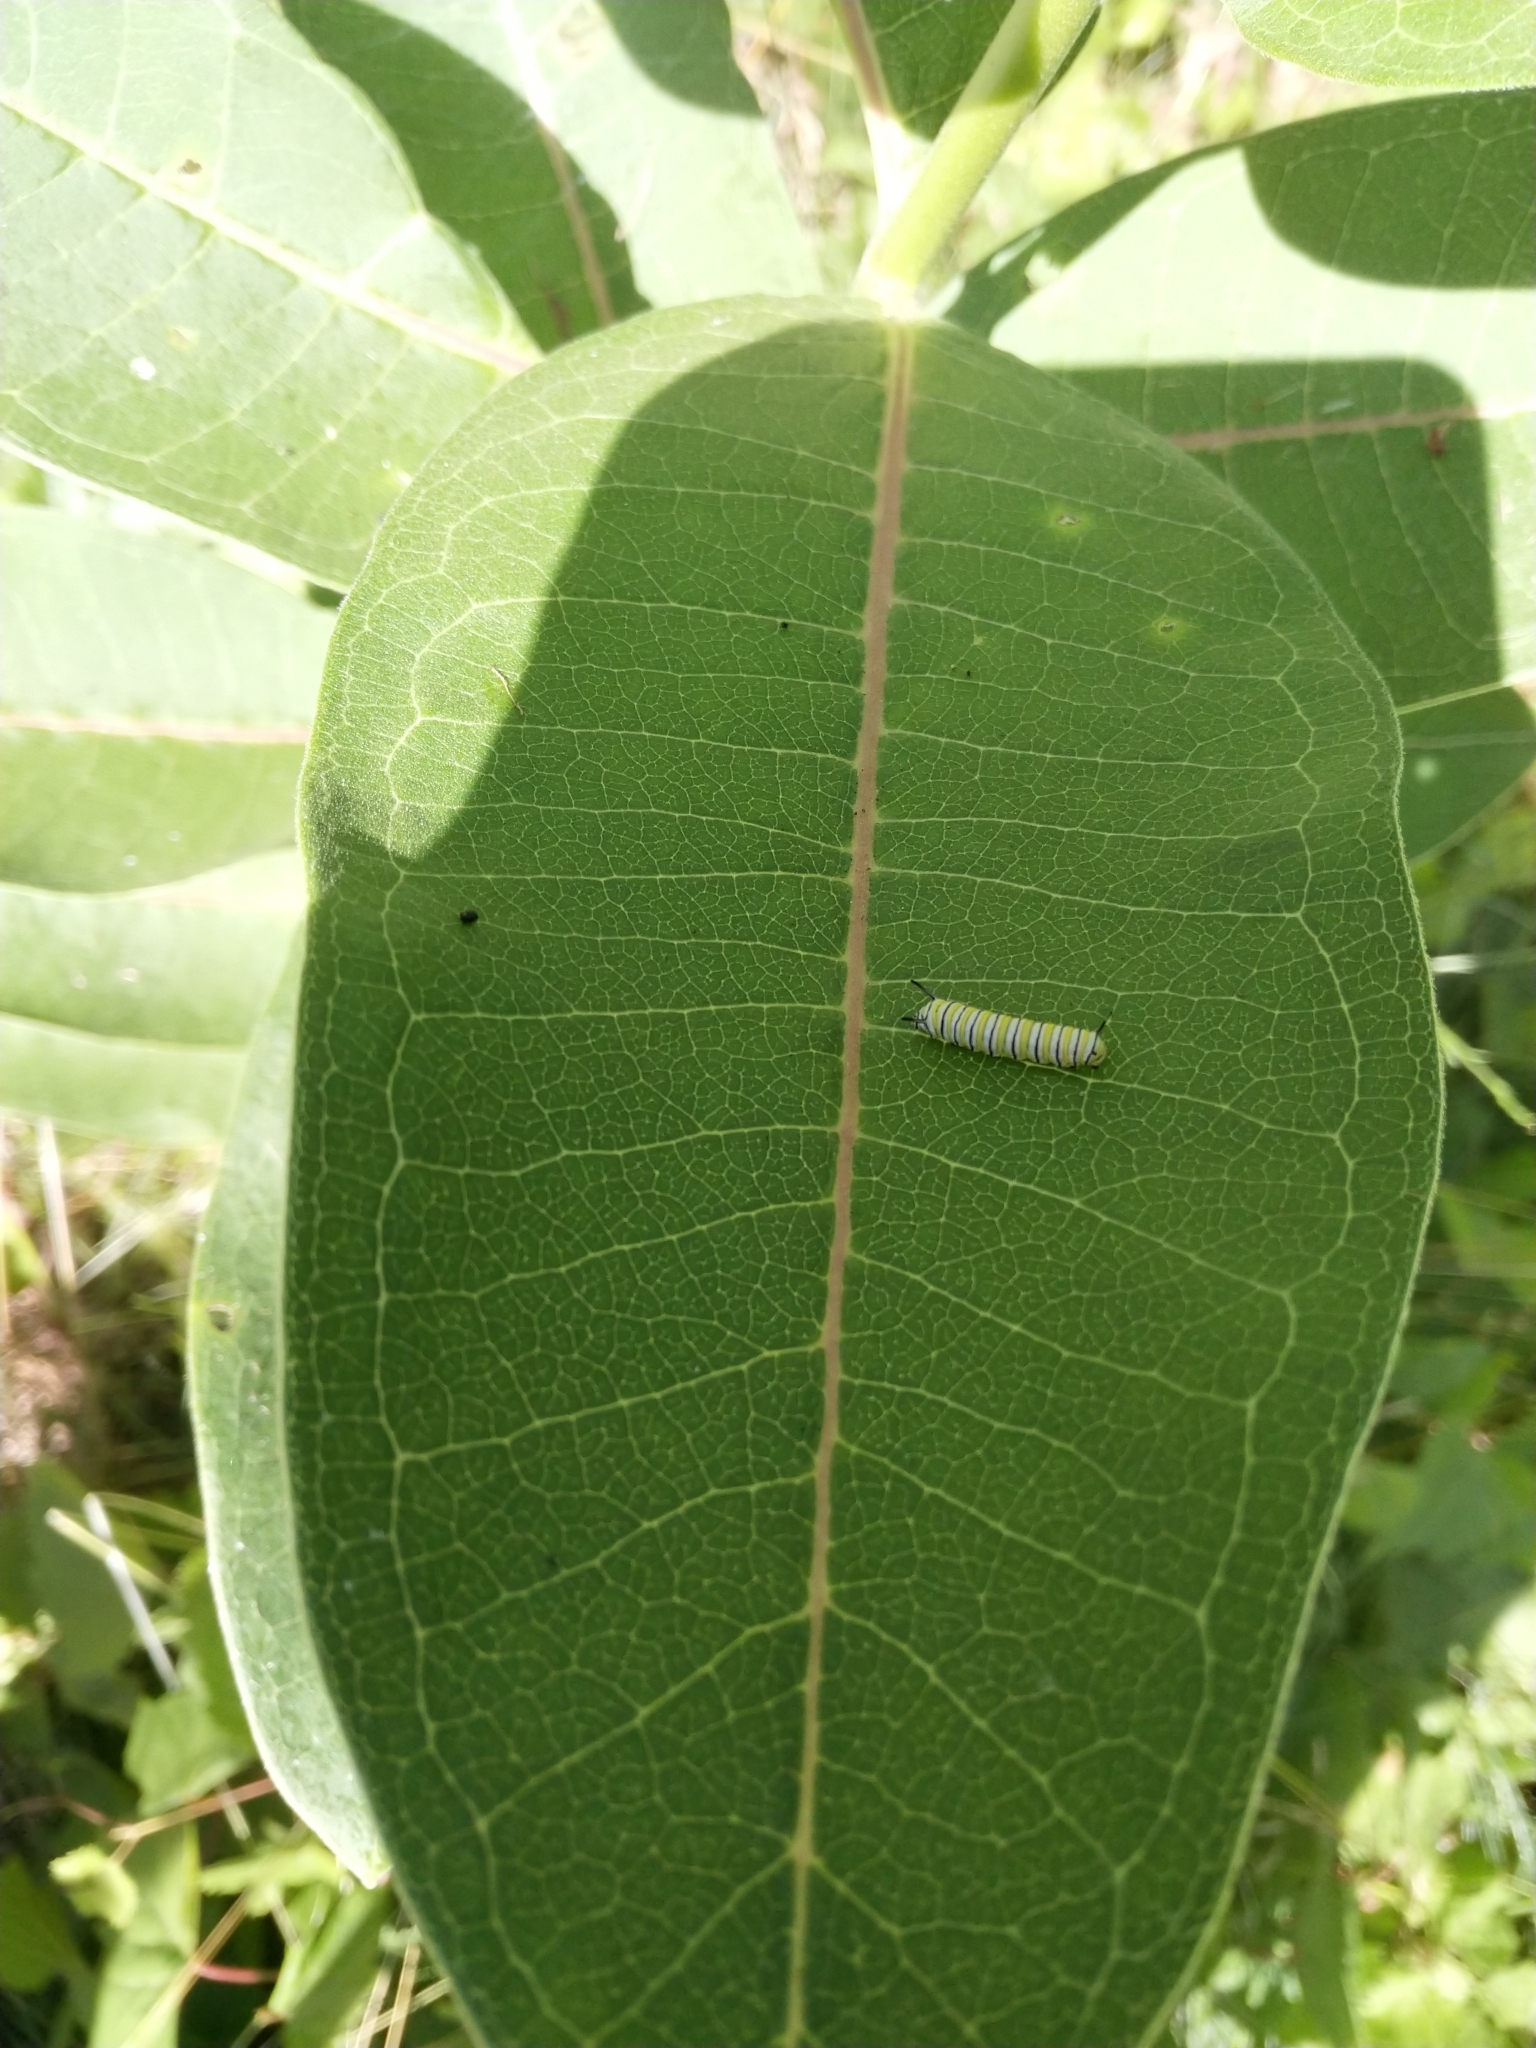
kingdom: Animalia
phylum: Arthropoda
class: Insecta
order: Lepidoptera
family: Nymphalidae
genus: Danaus
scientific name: Danaus plexippus
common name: Monarch
